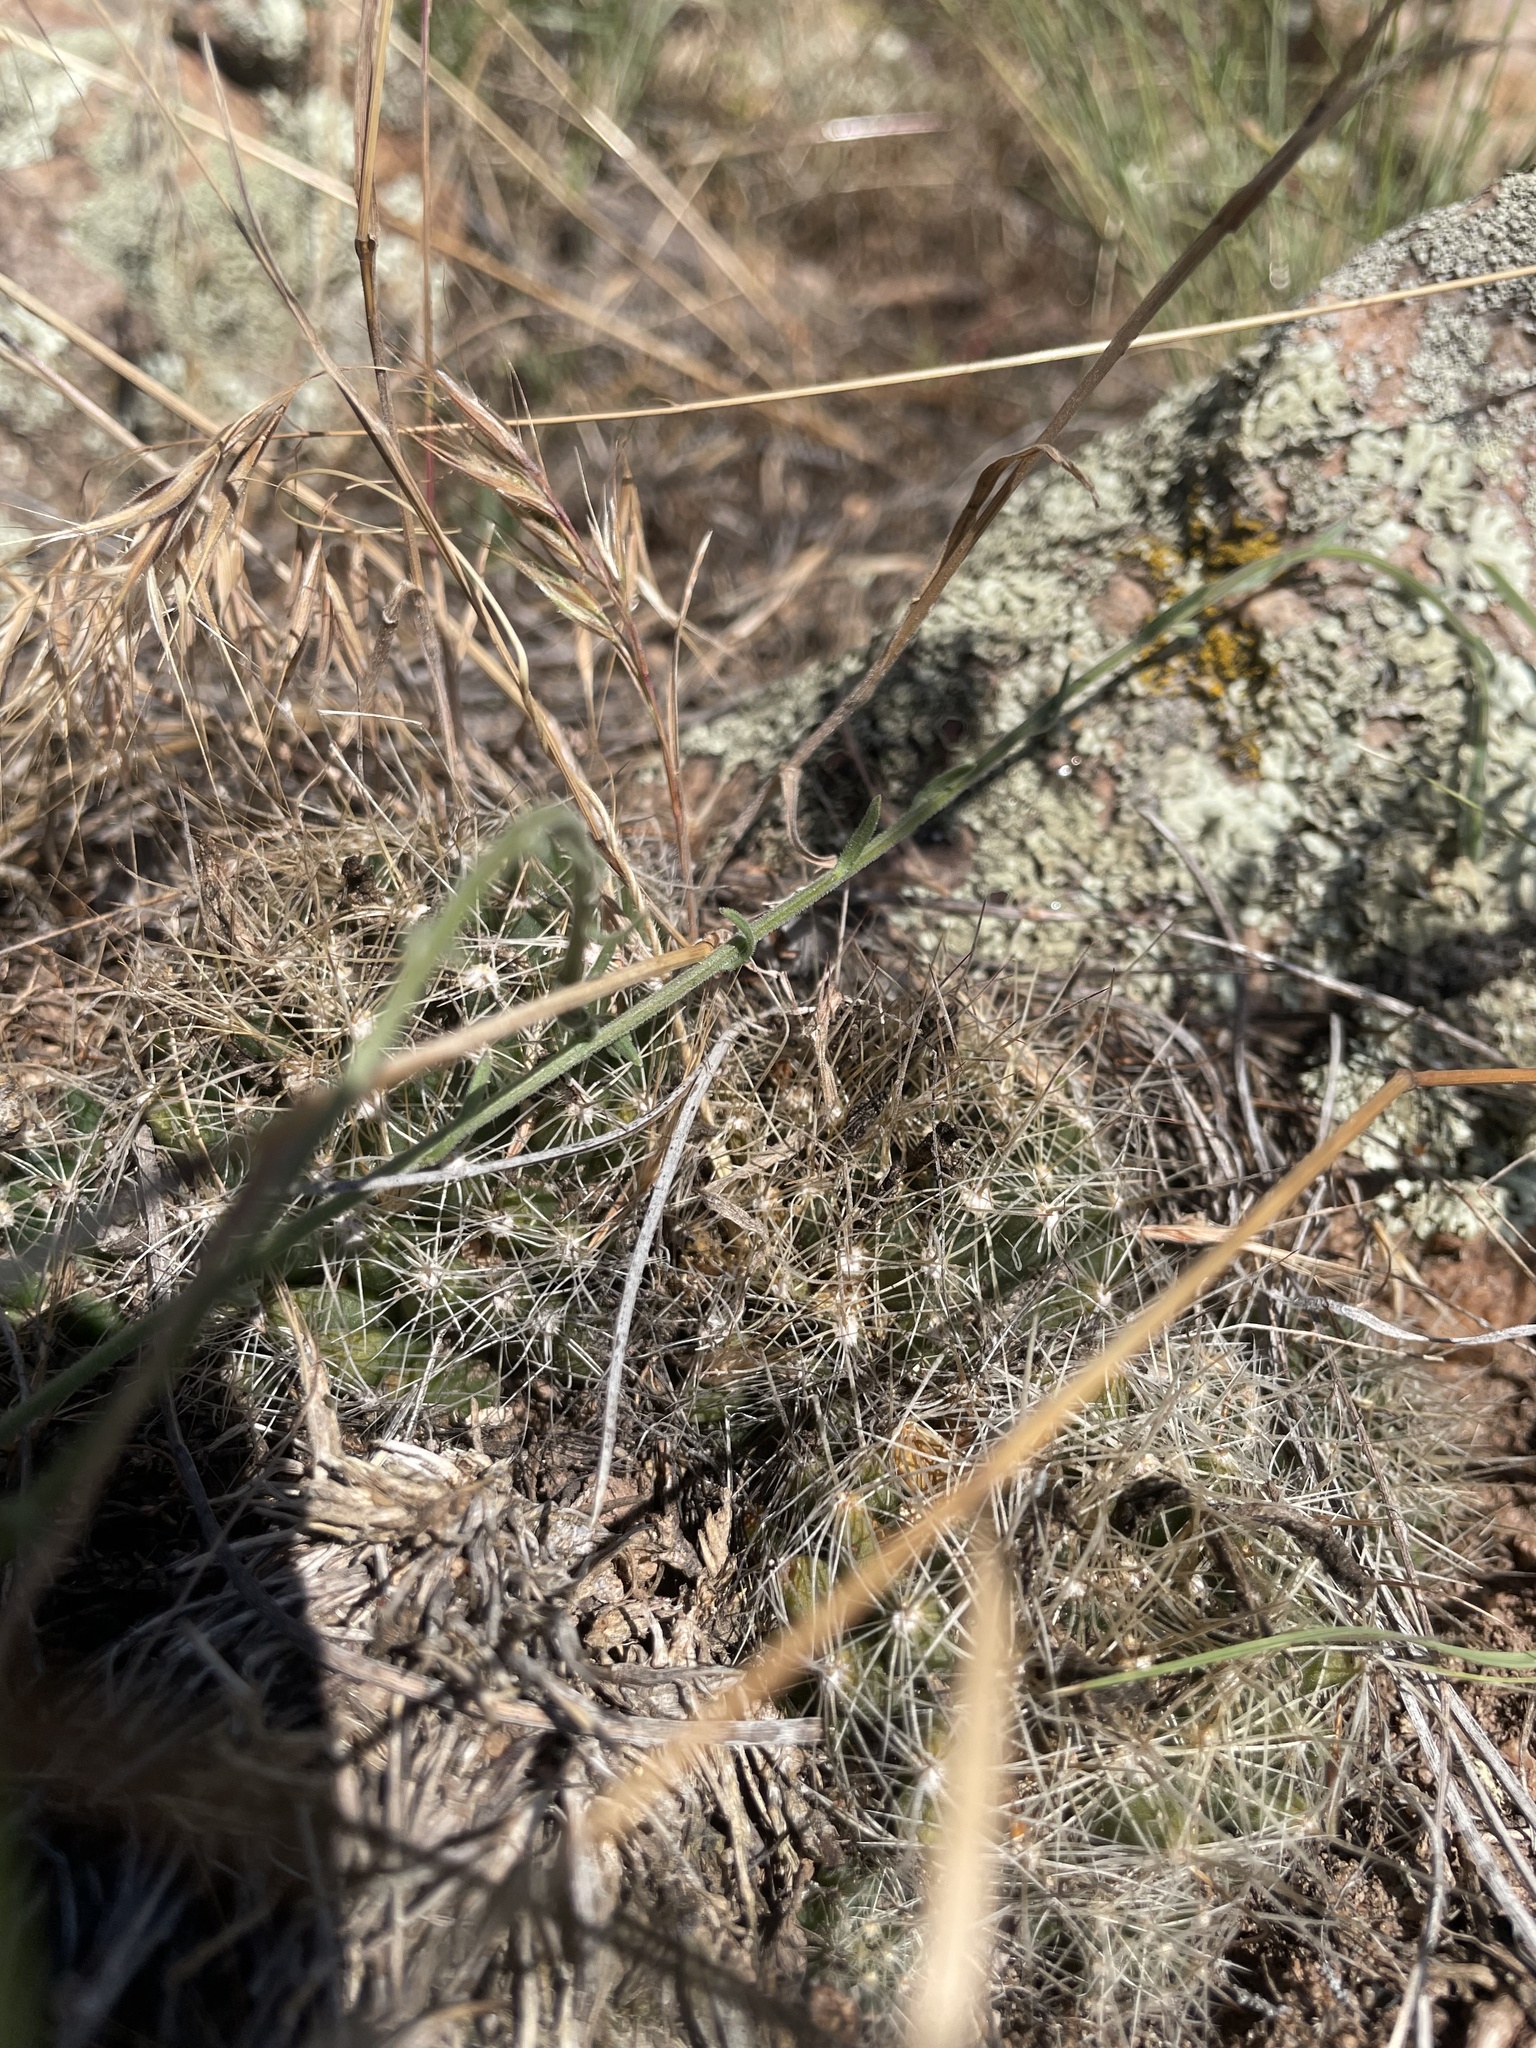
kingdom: Plantae
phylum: Tracheophyta
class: Magnoliopsida
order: Caryophyllales
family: Cactaceae
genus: Pelecyphora
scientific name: Pelecyphora missouriensis
